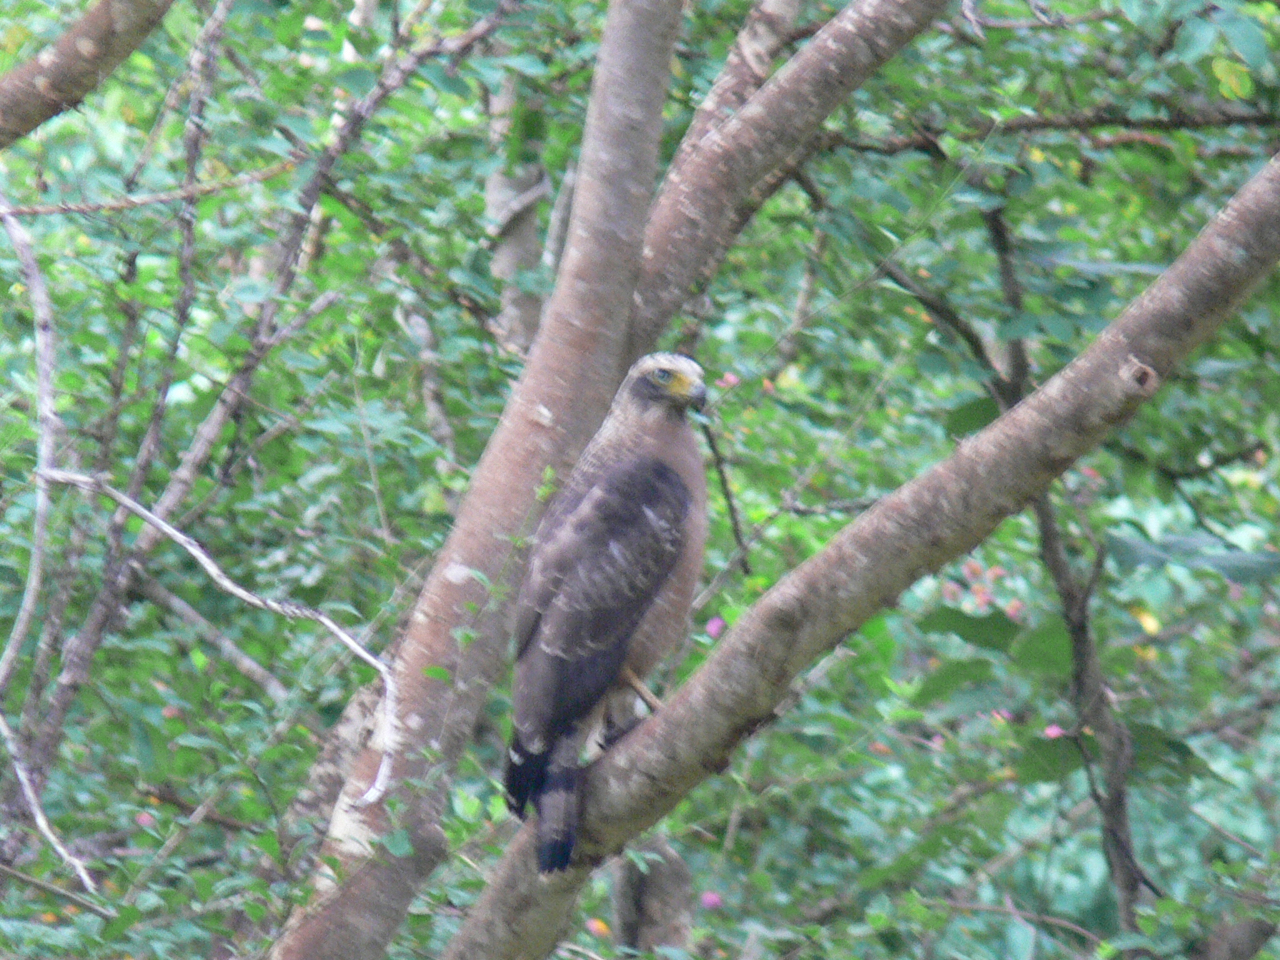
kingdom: Animalia
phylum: Chordata
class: Aves
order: Accipitriformes
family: Accipitridae
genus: Spilornis
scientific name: Spilornis cheela
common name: Crested serpent eagle
